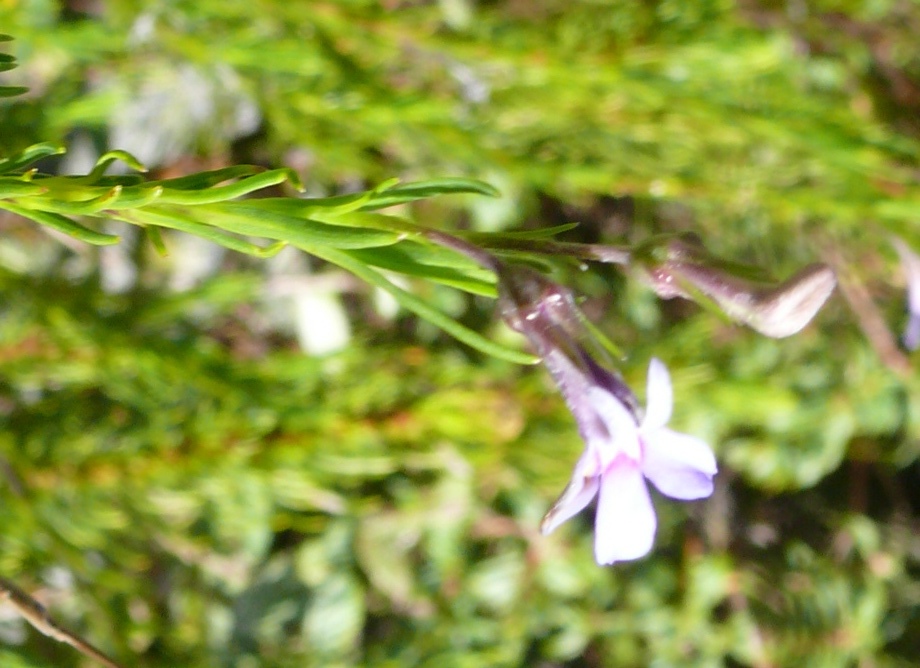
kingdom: Plantae
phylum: Tracheophyta
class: Magnoliopsida
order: Asterales
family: Campanulaceae
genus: Lobelia
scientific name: Lobelia pinifolia
